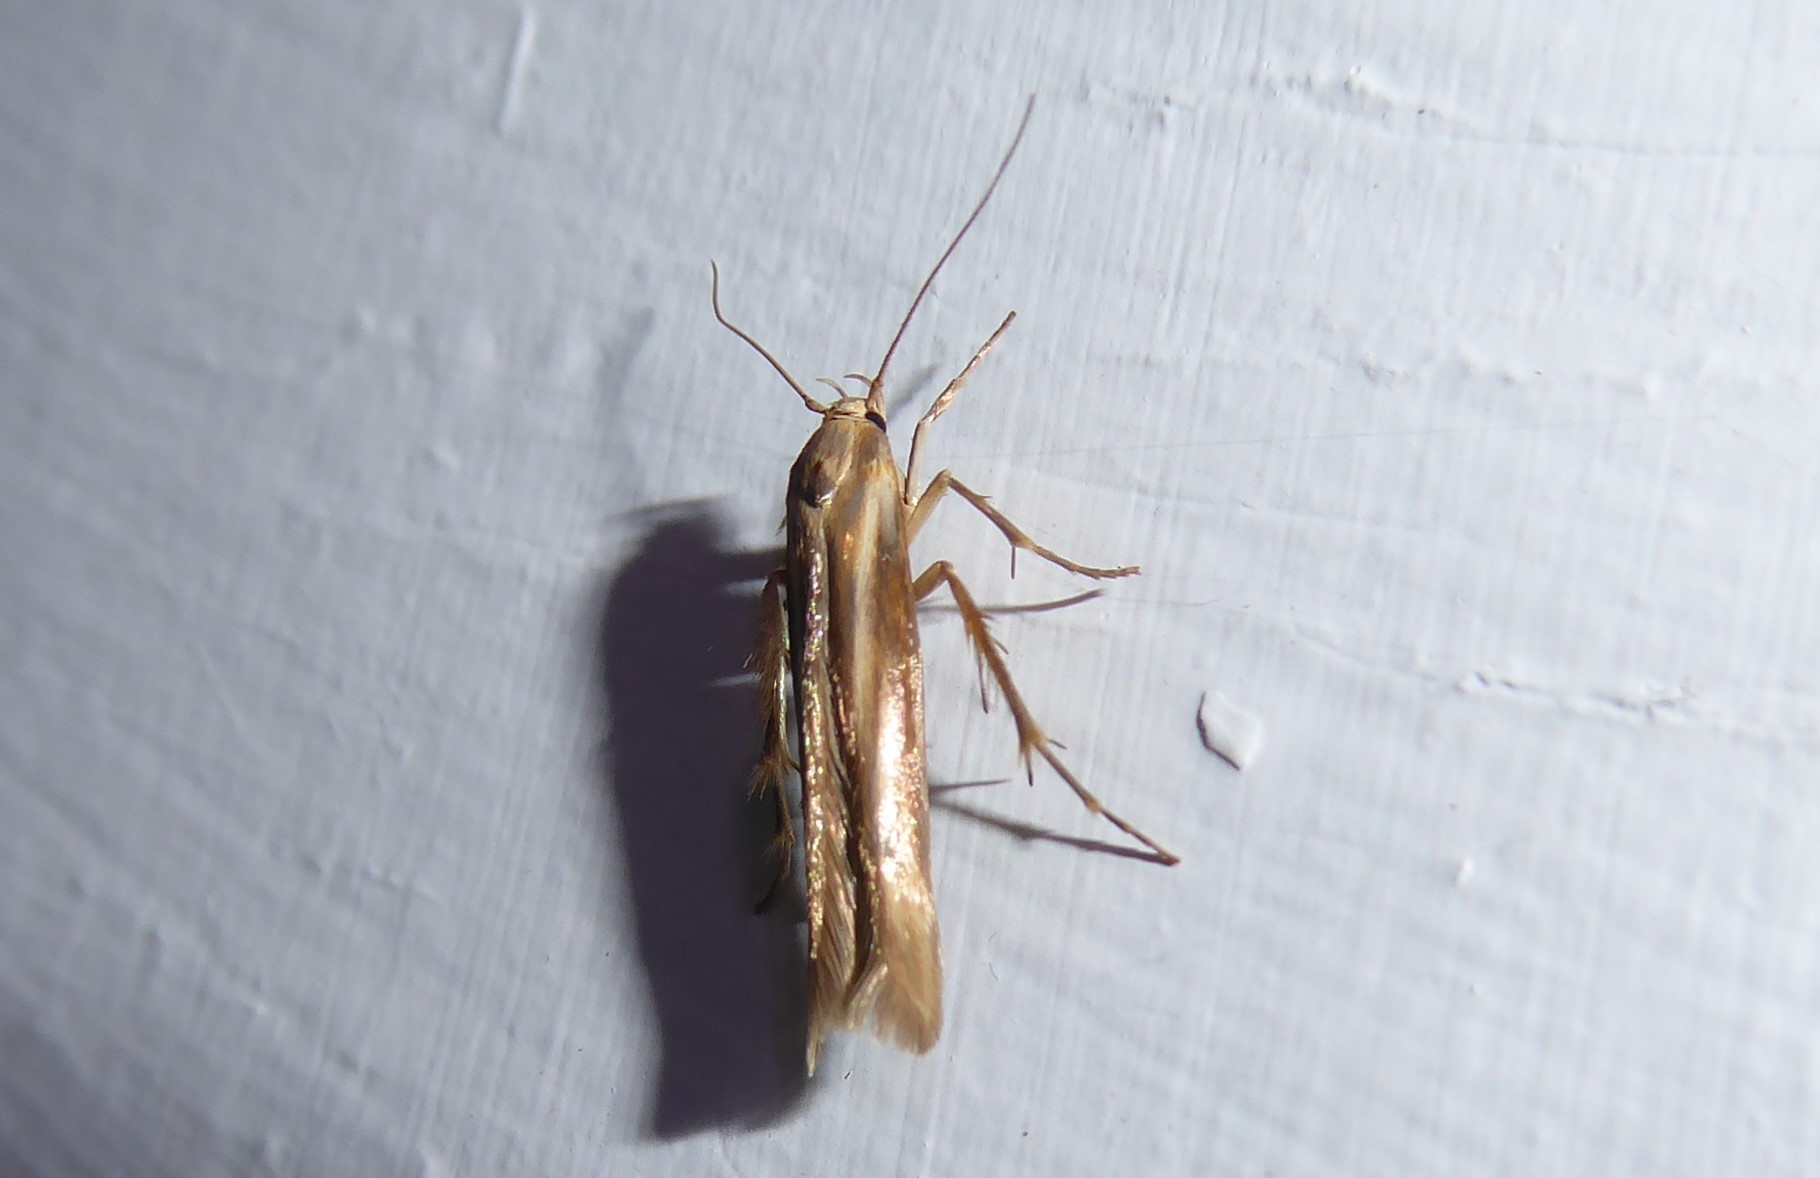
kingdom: Animalia
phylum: Arthropoda
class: Insecta
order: Lepidoptera
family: Stathmopodidae
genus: Stathmopoda
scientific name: Stathmopoda aposema
